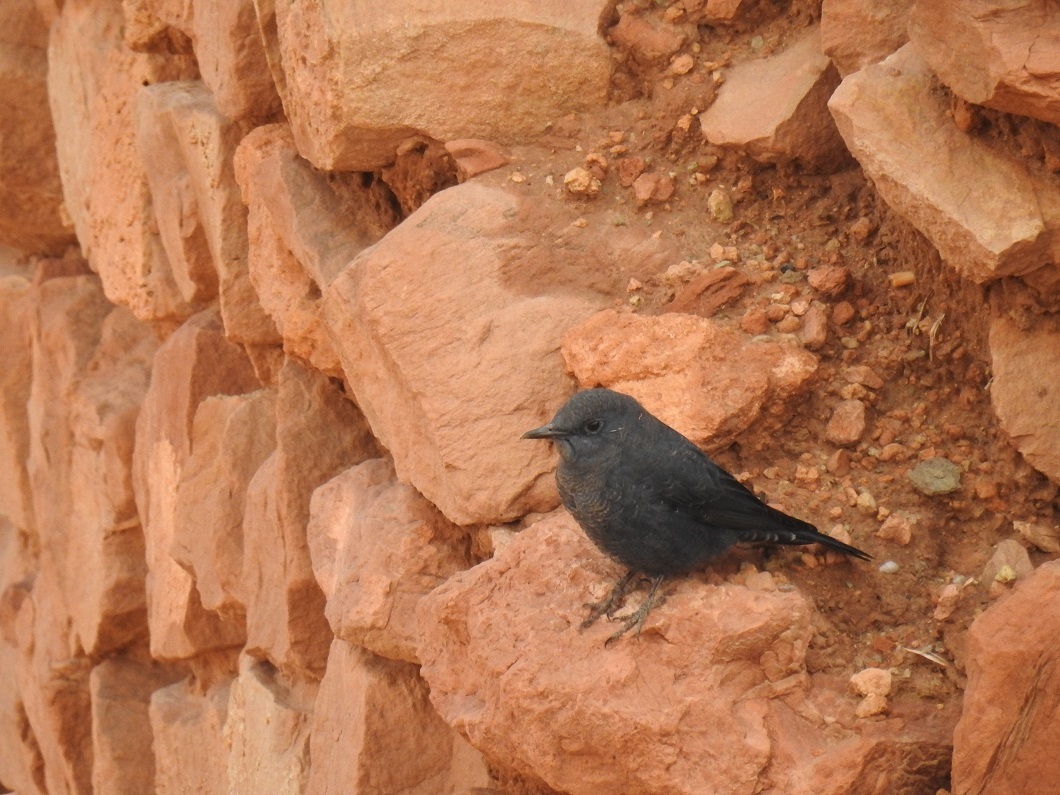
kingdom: Animalia
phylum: Chordata
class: Aves
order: Passeriformes
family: Muscicapidae
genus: Monticola
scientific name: Monticola solitarius
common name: Blue rock thrush
